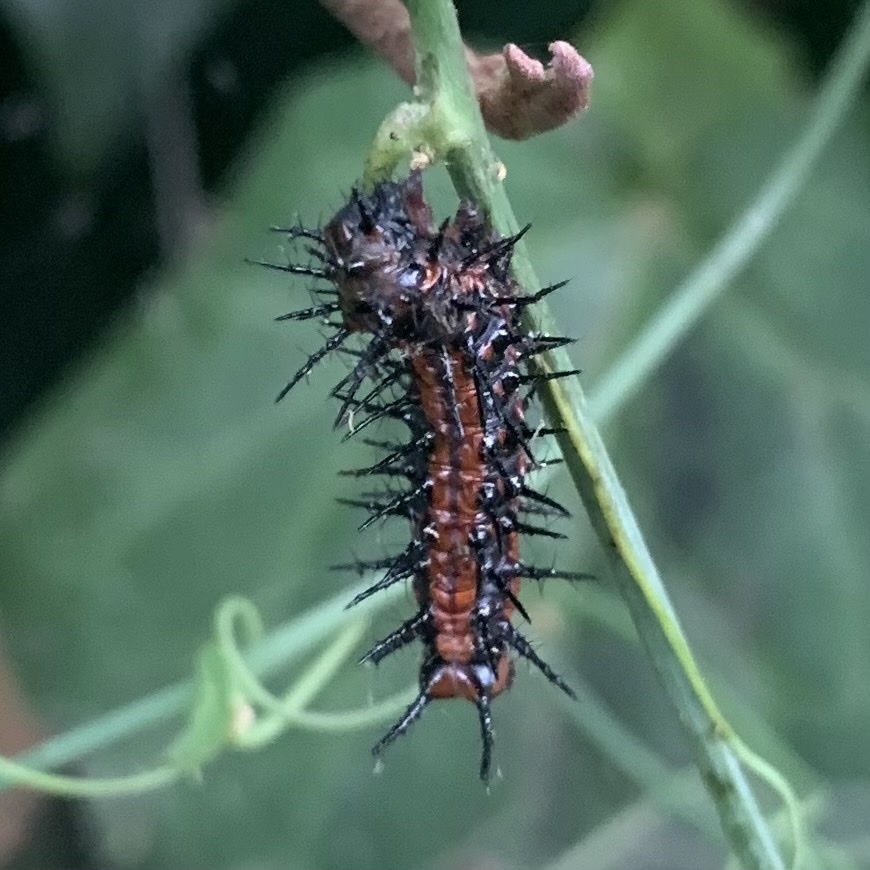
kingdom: Animalia
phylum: Arthropoda
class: Insecta
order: Lepidoptera
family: Nymphalidae
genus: Dione
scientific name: Dione vanillae
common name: Gulf fritillary
